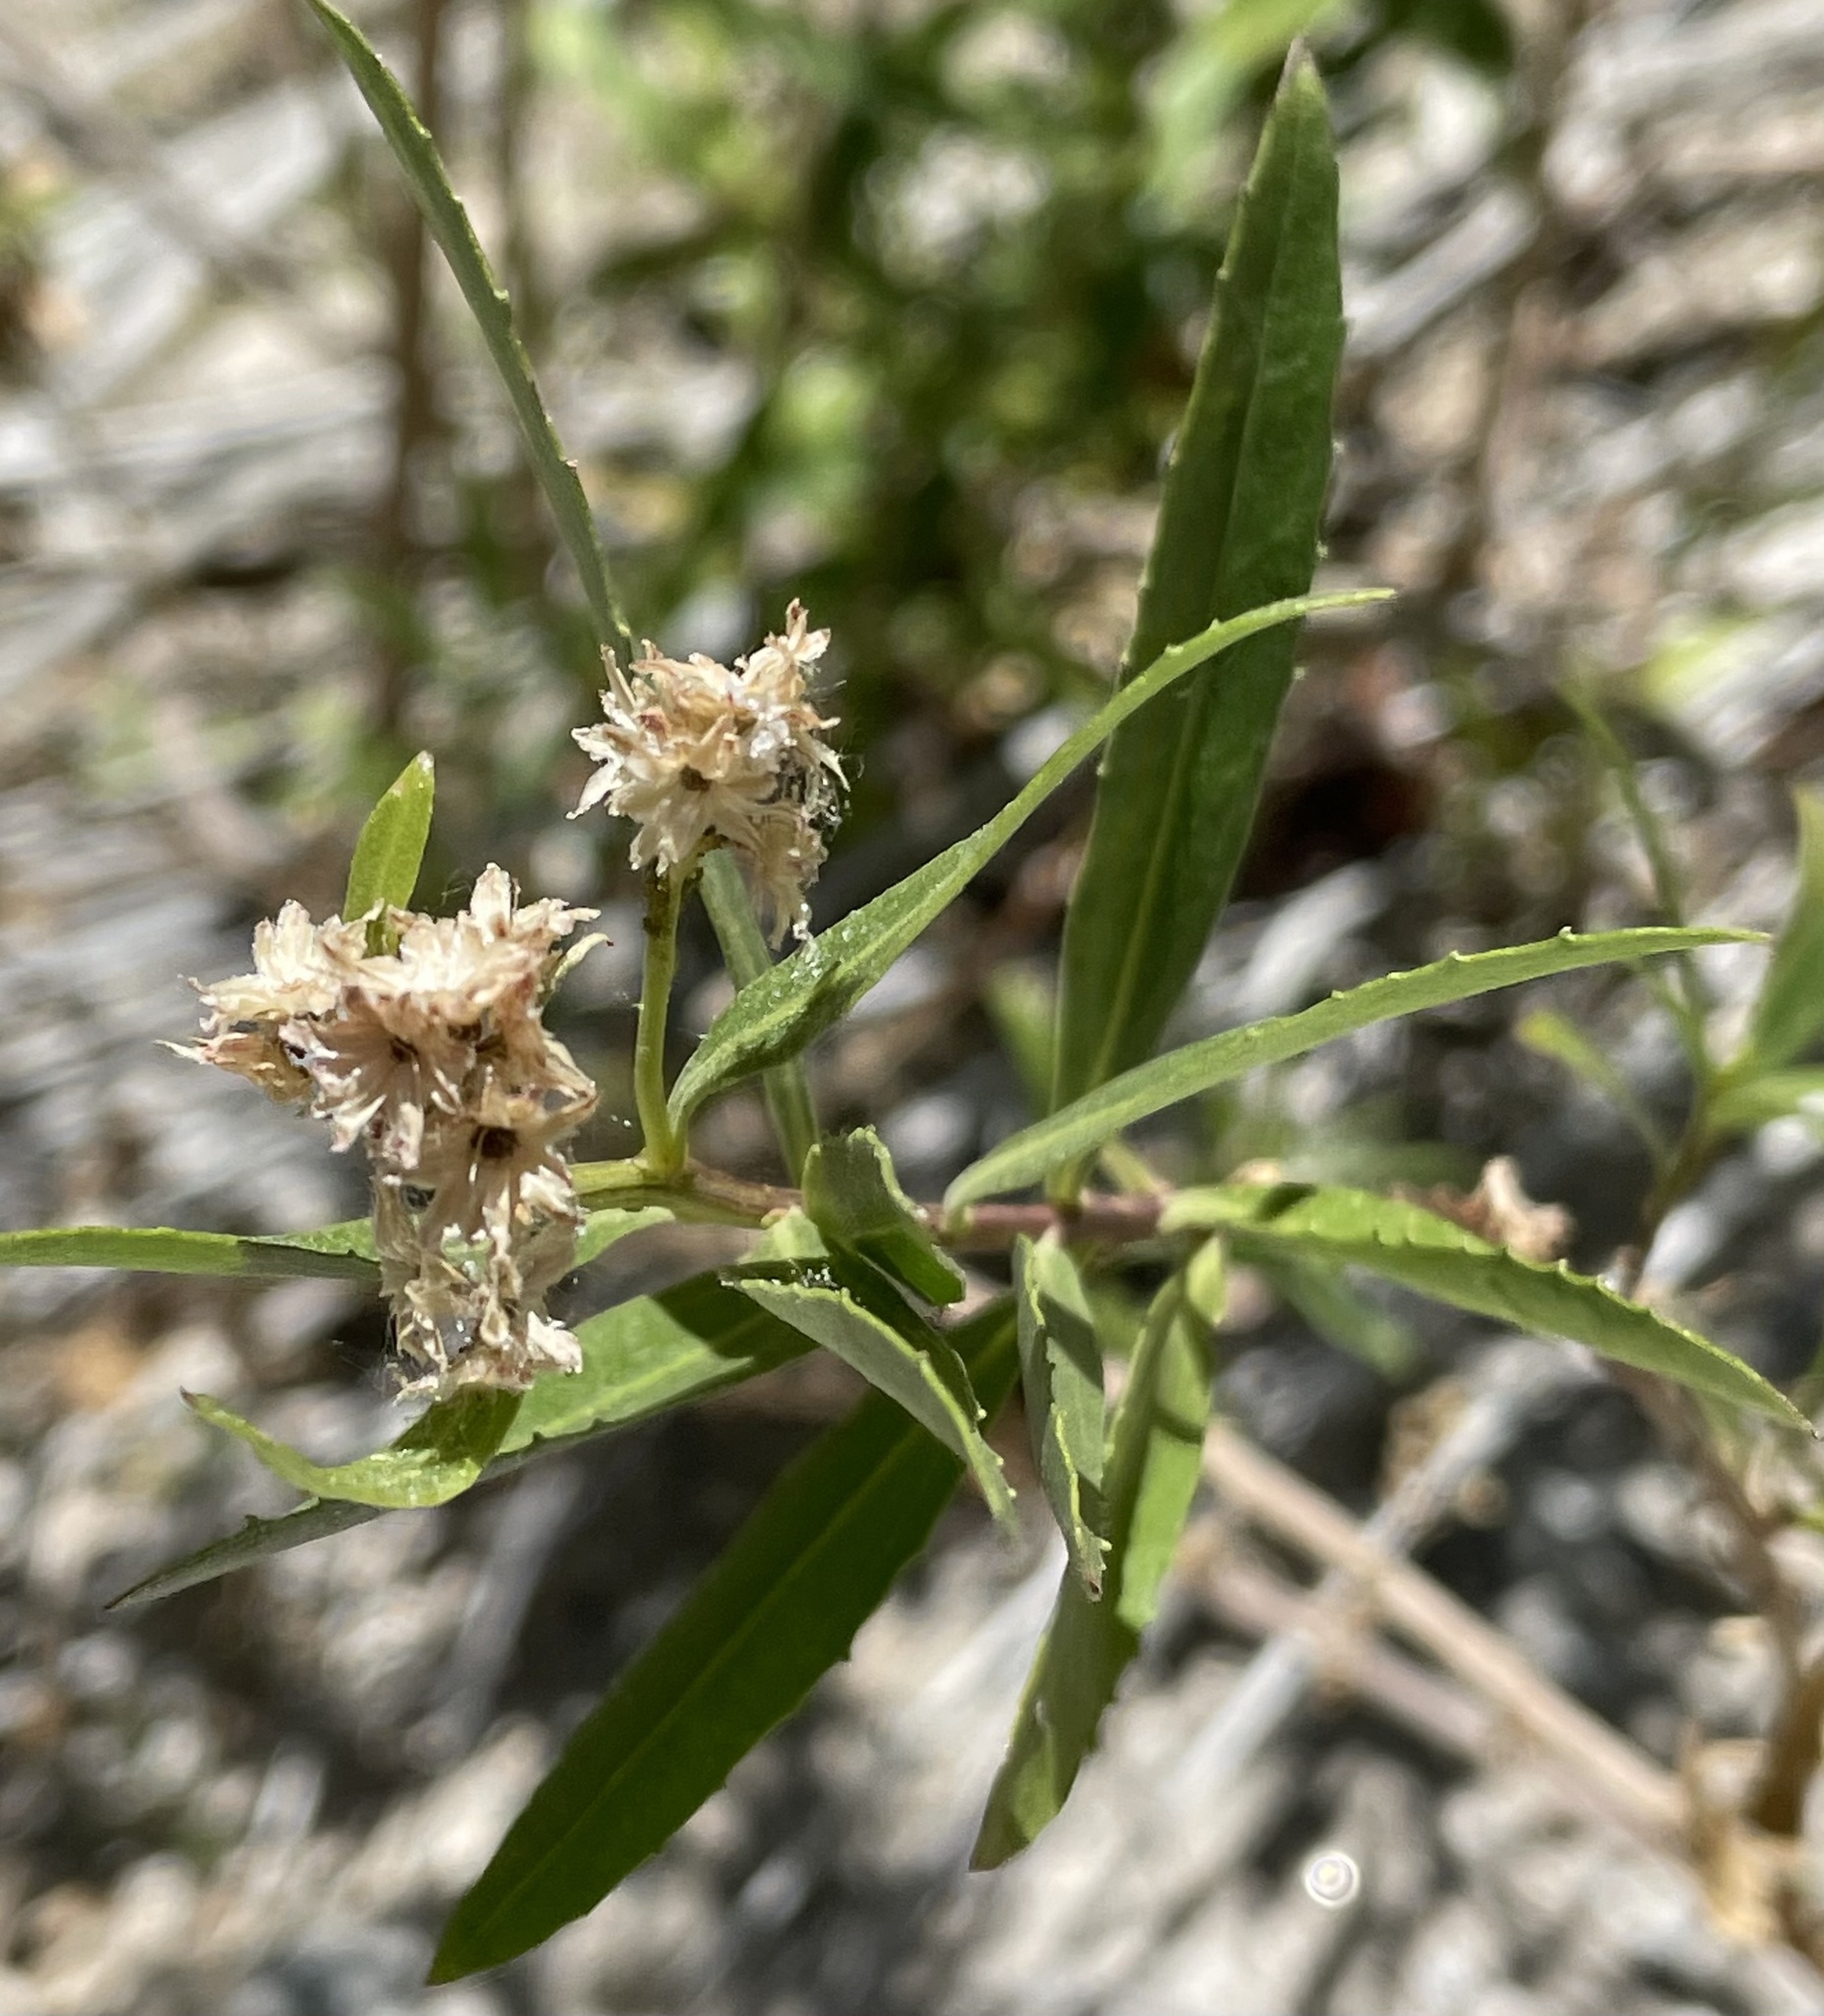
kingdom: Plantae
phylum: Tracheophyta
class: Magnoliopsida
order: Asterales
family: Asteraceae
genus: Baccharis
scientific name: Baccharis salicifolia
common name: Sticky baccharis
